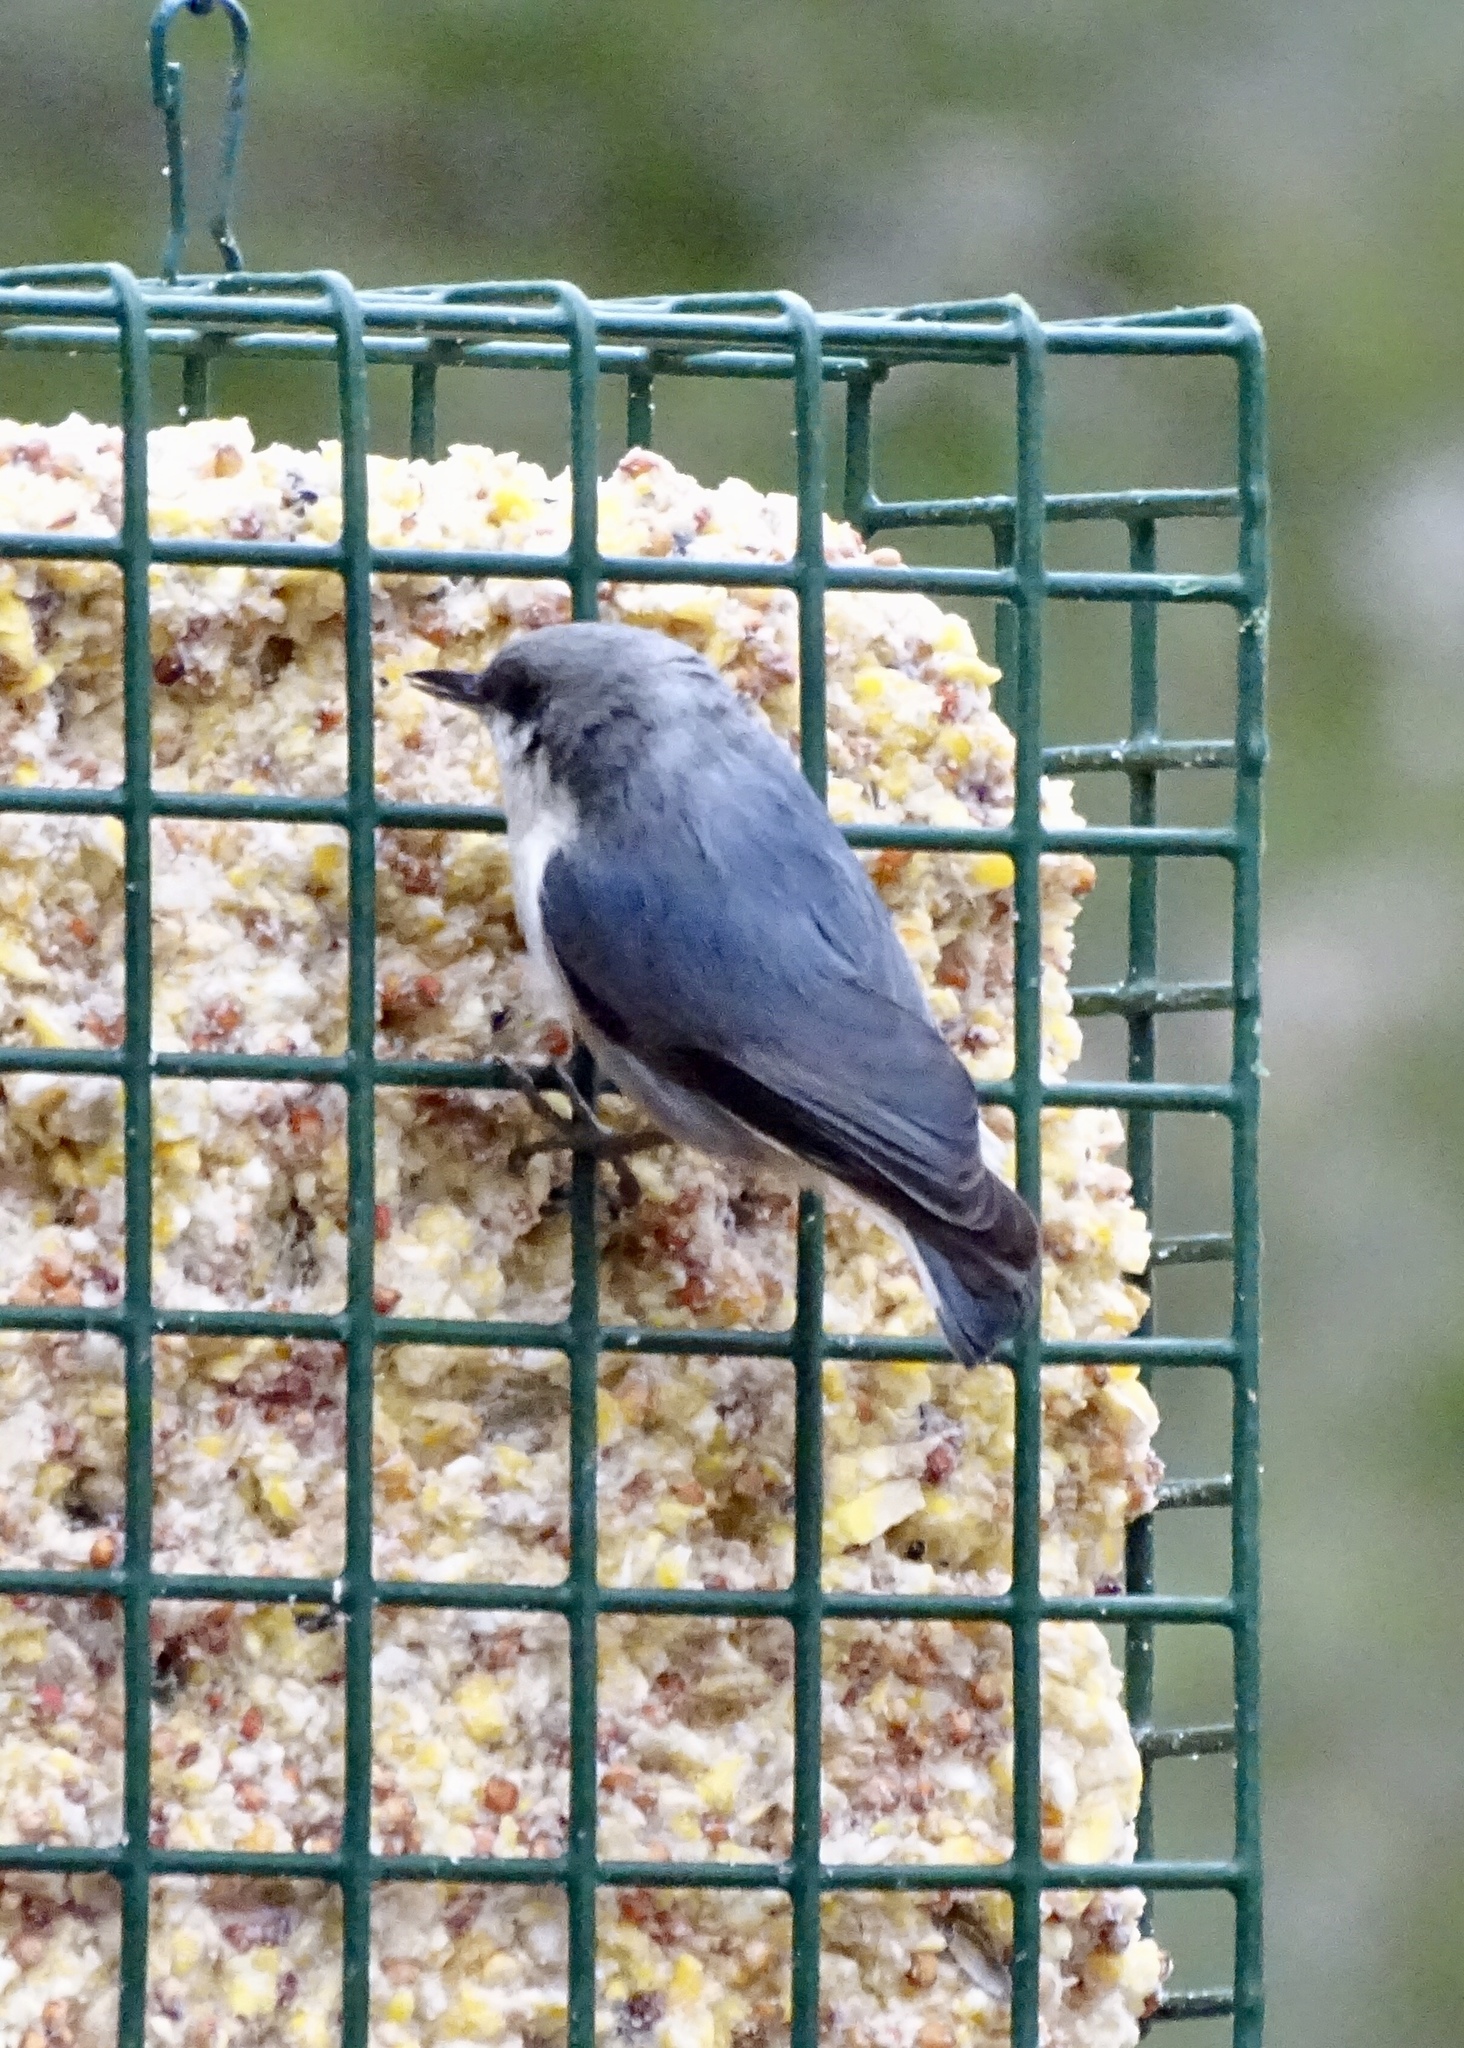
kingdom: Animalia
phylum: Chordata
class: Aves
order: Passeriformes
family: Sittidae
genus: Sitta
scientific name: Sitta pygmaea
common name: Pygmy nuthatch
